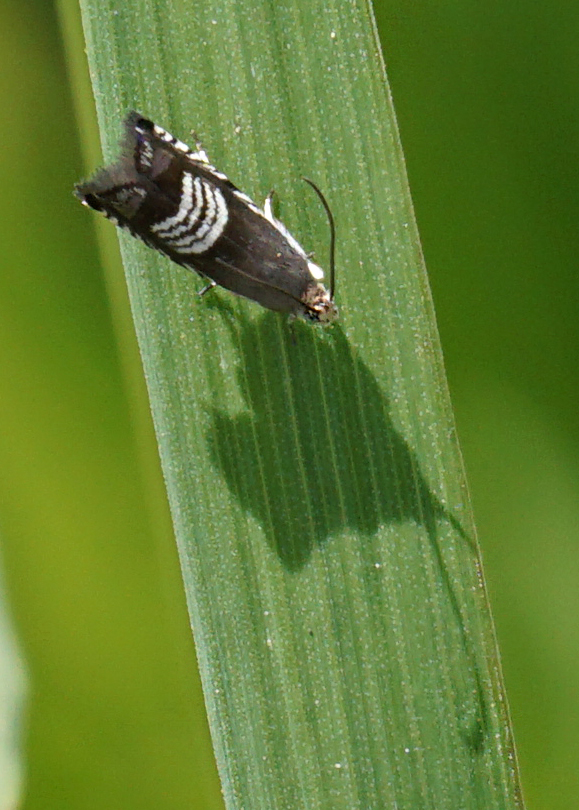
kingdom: Animalia
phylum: Arthropoda
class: Insecta
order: Lepidoptera
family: Tortricidae
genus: Grapholita
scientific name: Grapholita compositella
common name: Triple-stripe piercer
